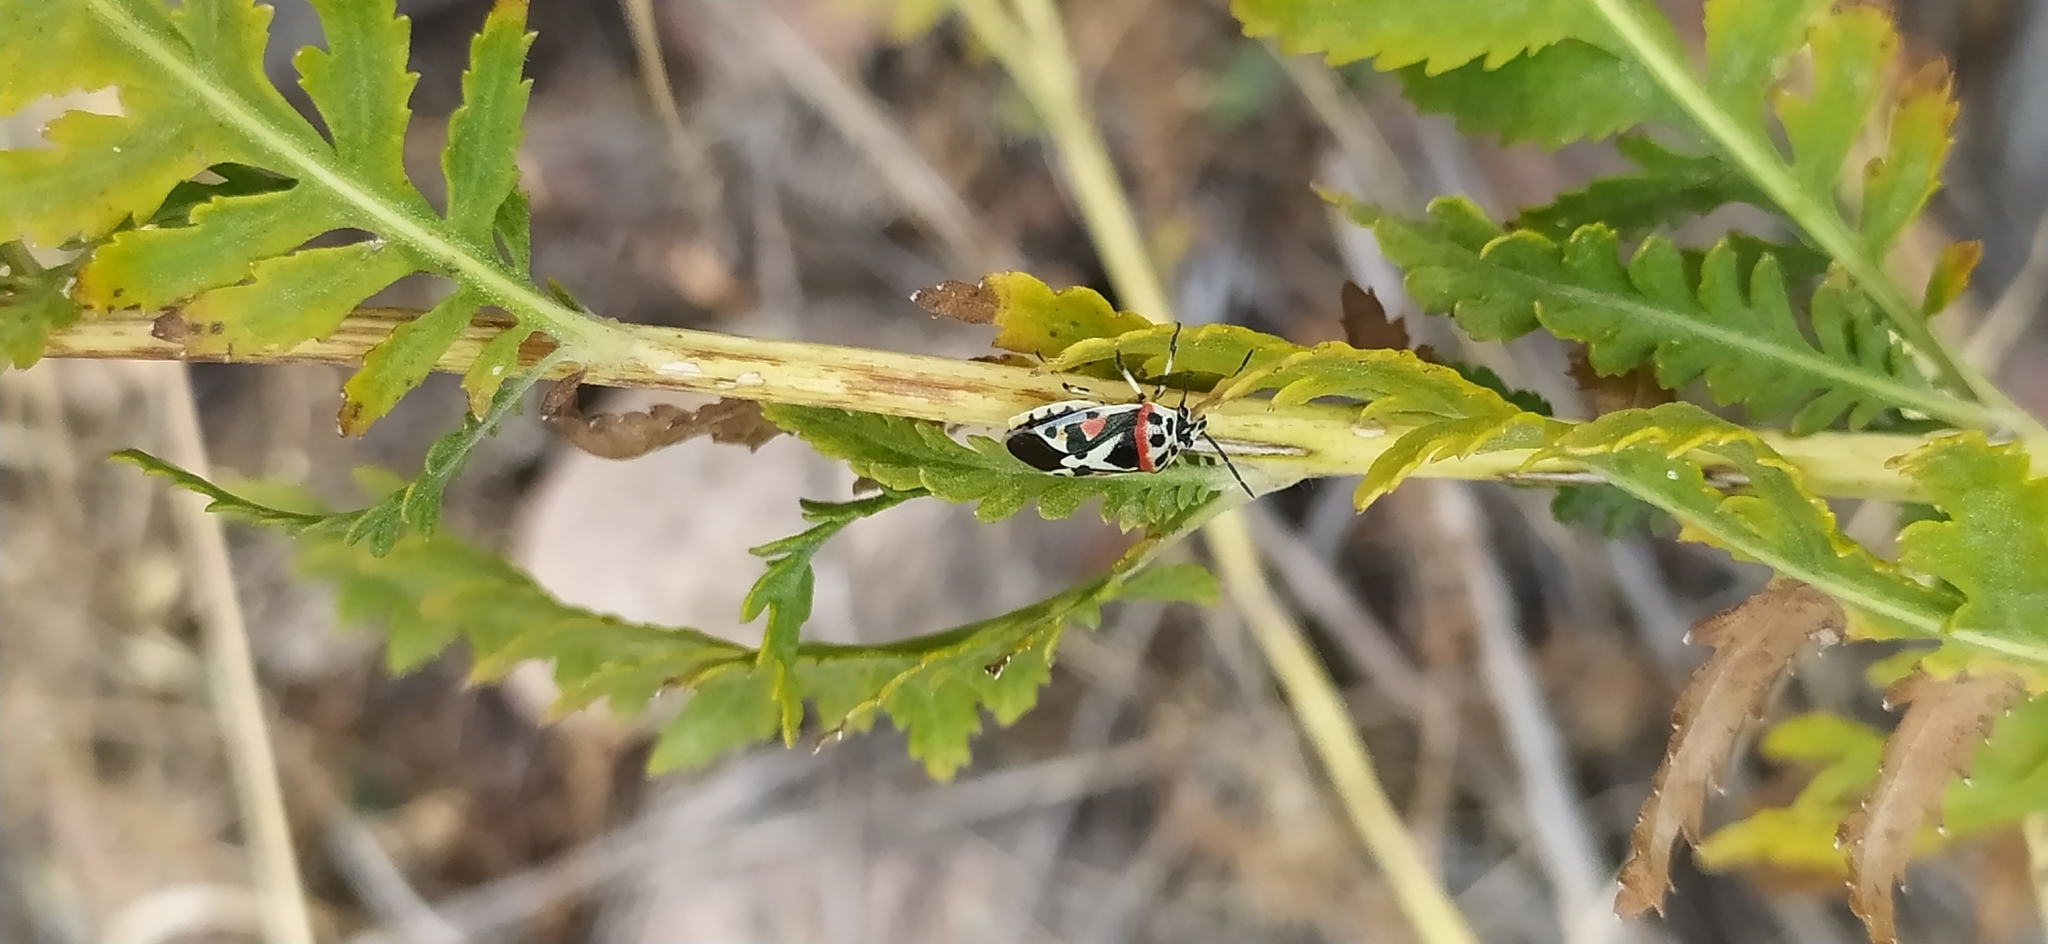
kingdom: Animalia
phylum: Arthropoda
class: Insecta
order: Hemiptera
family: Pentatomidae
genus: Eurydema
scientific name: Eurydema ornata
